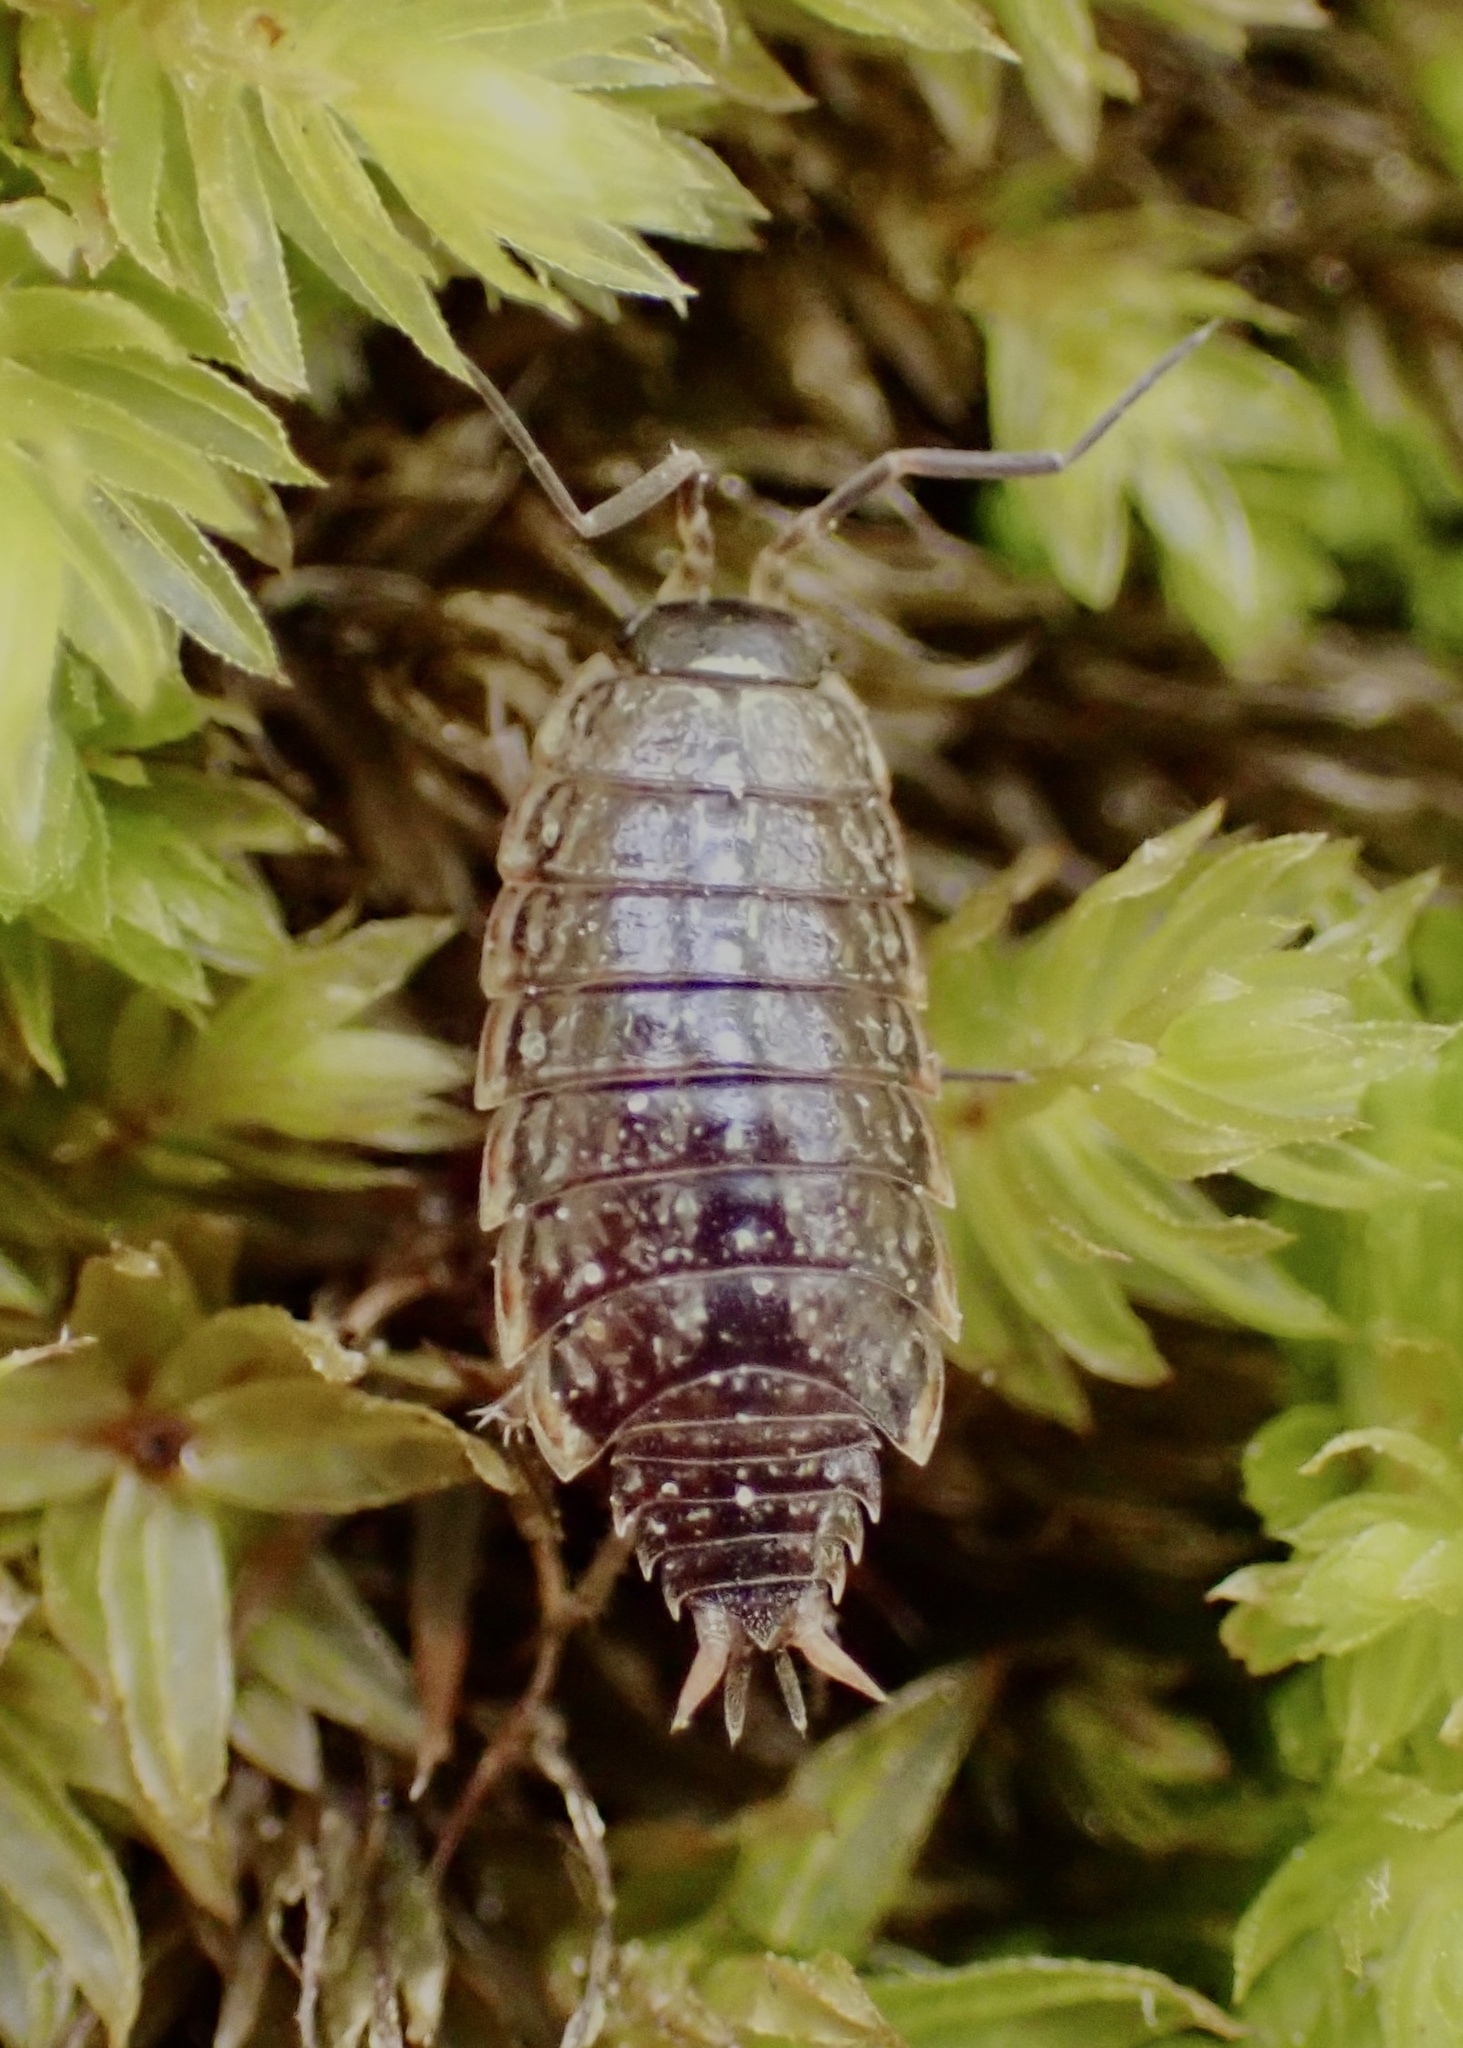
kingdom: Animalia
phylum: Arthropoda
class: Malacostraca
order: Isopoda
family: Philosciidae
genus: Philoscia
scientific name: Philoscia muscorum
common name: Common striped woodlouse
